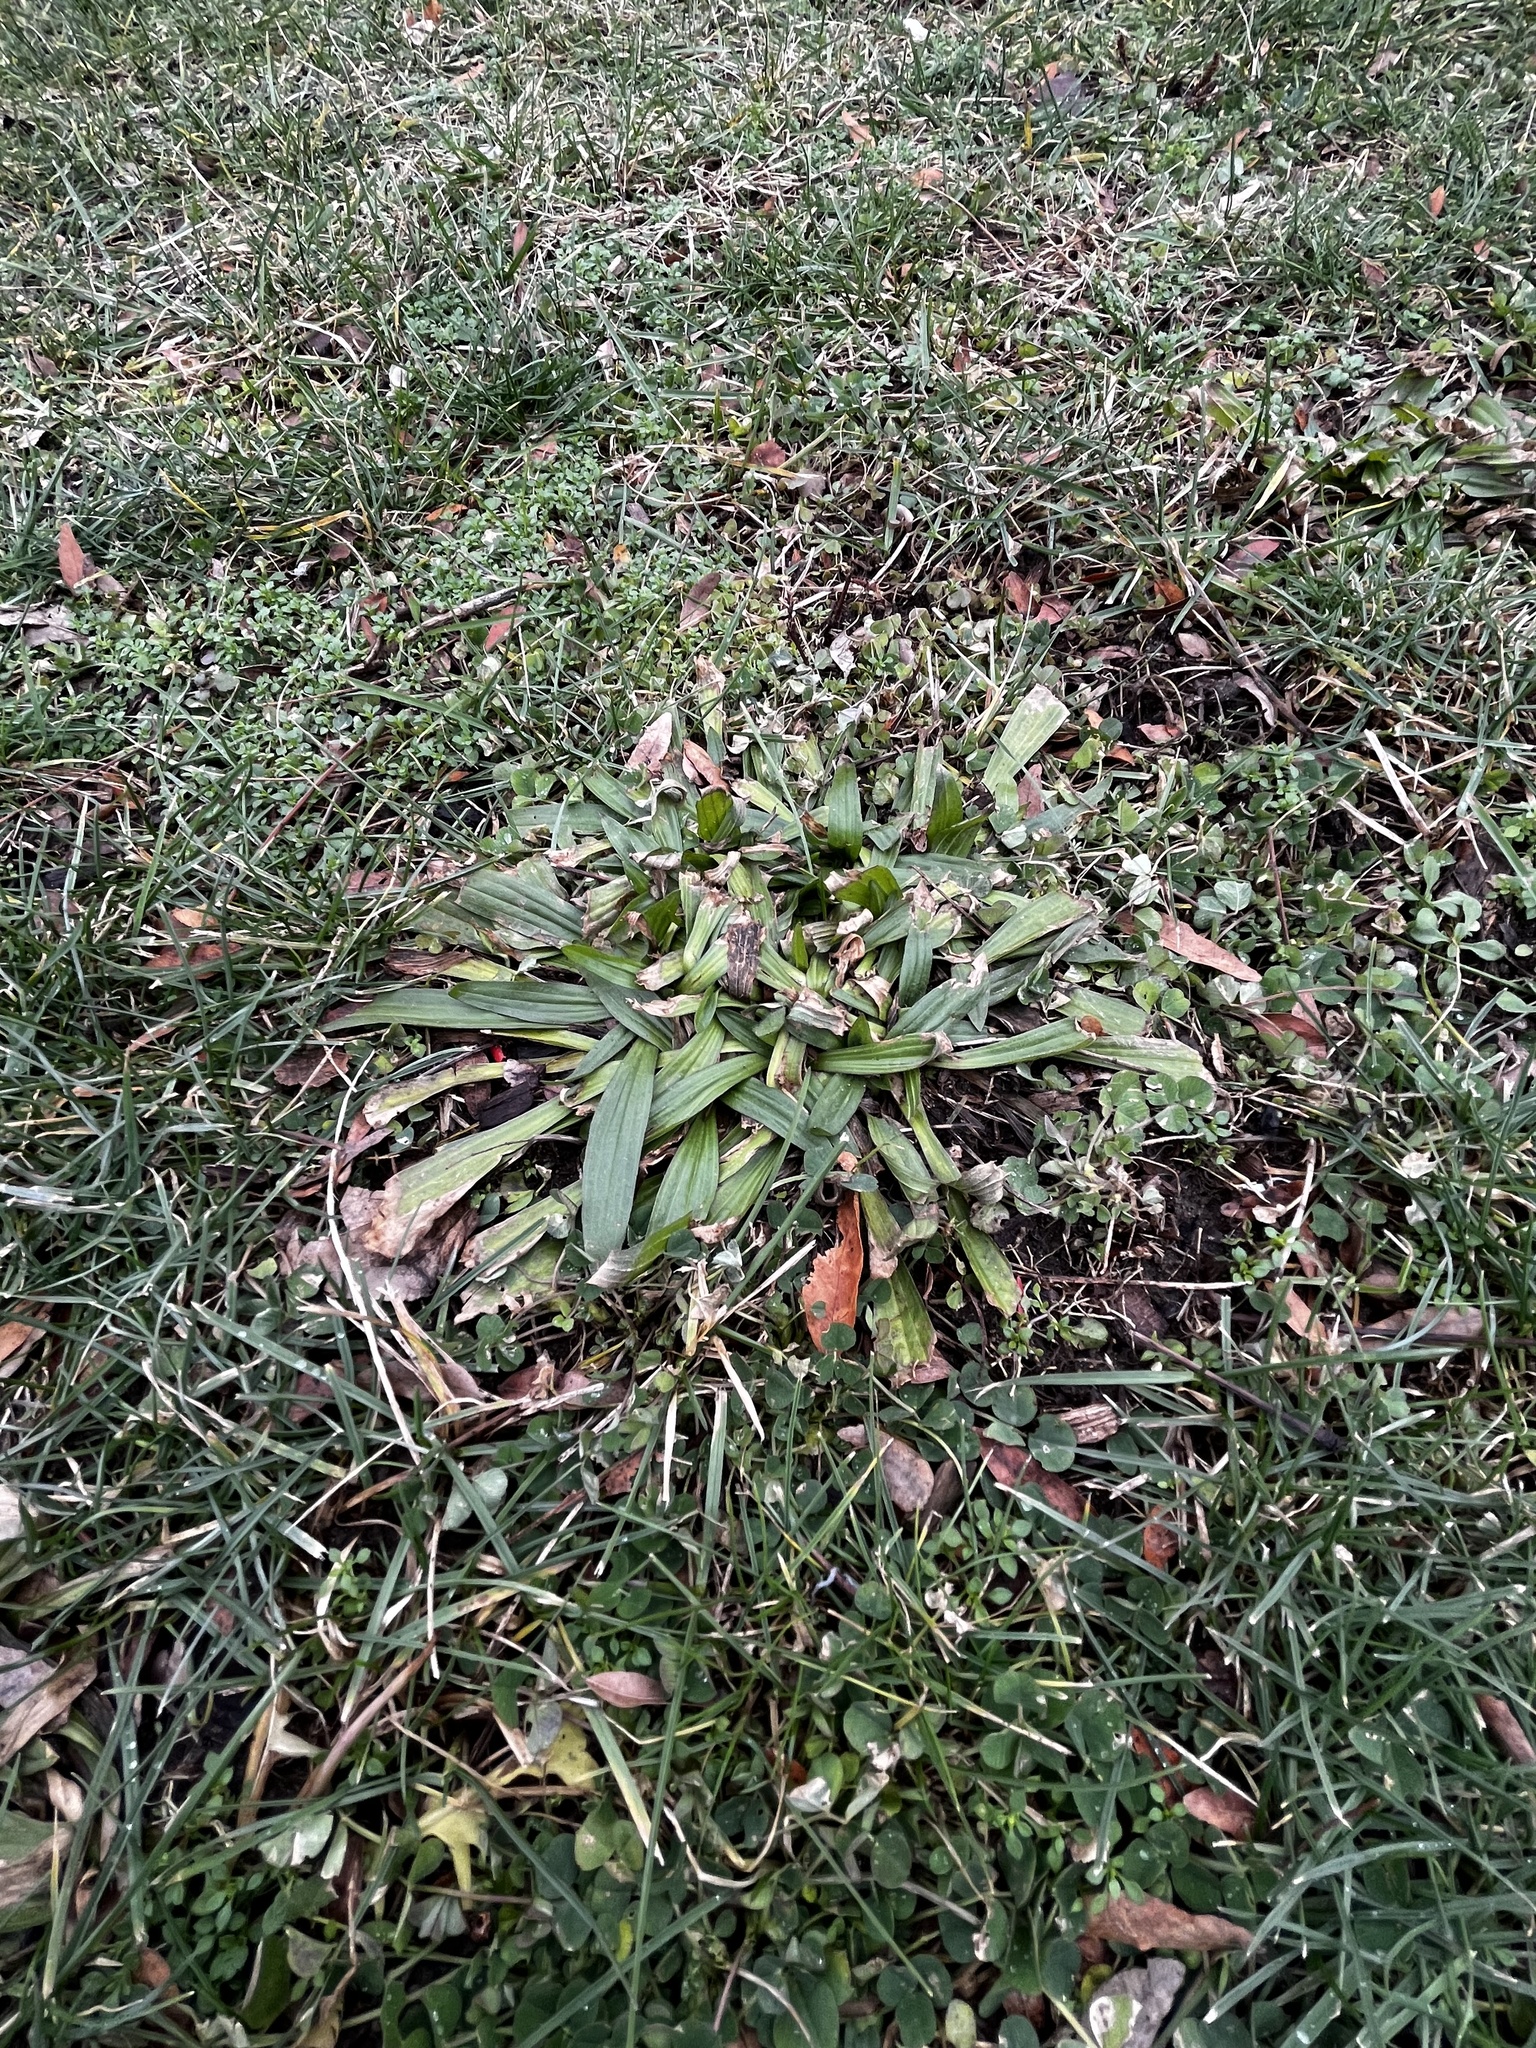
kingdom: Plantae
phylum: Tracheophyta
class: Magnoliopsida
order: Lamiales
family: Plantaginaceae
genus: Plantago
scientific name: Plantago lanceolata
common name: Ribwort plantain
